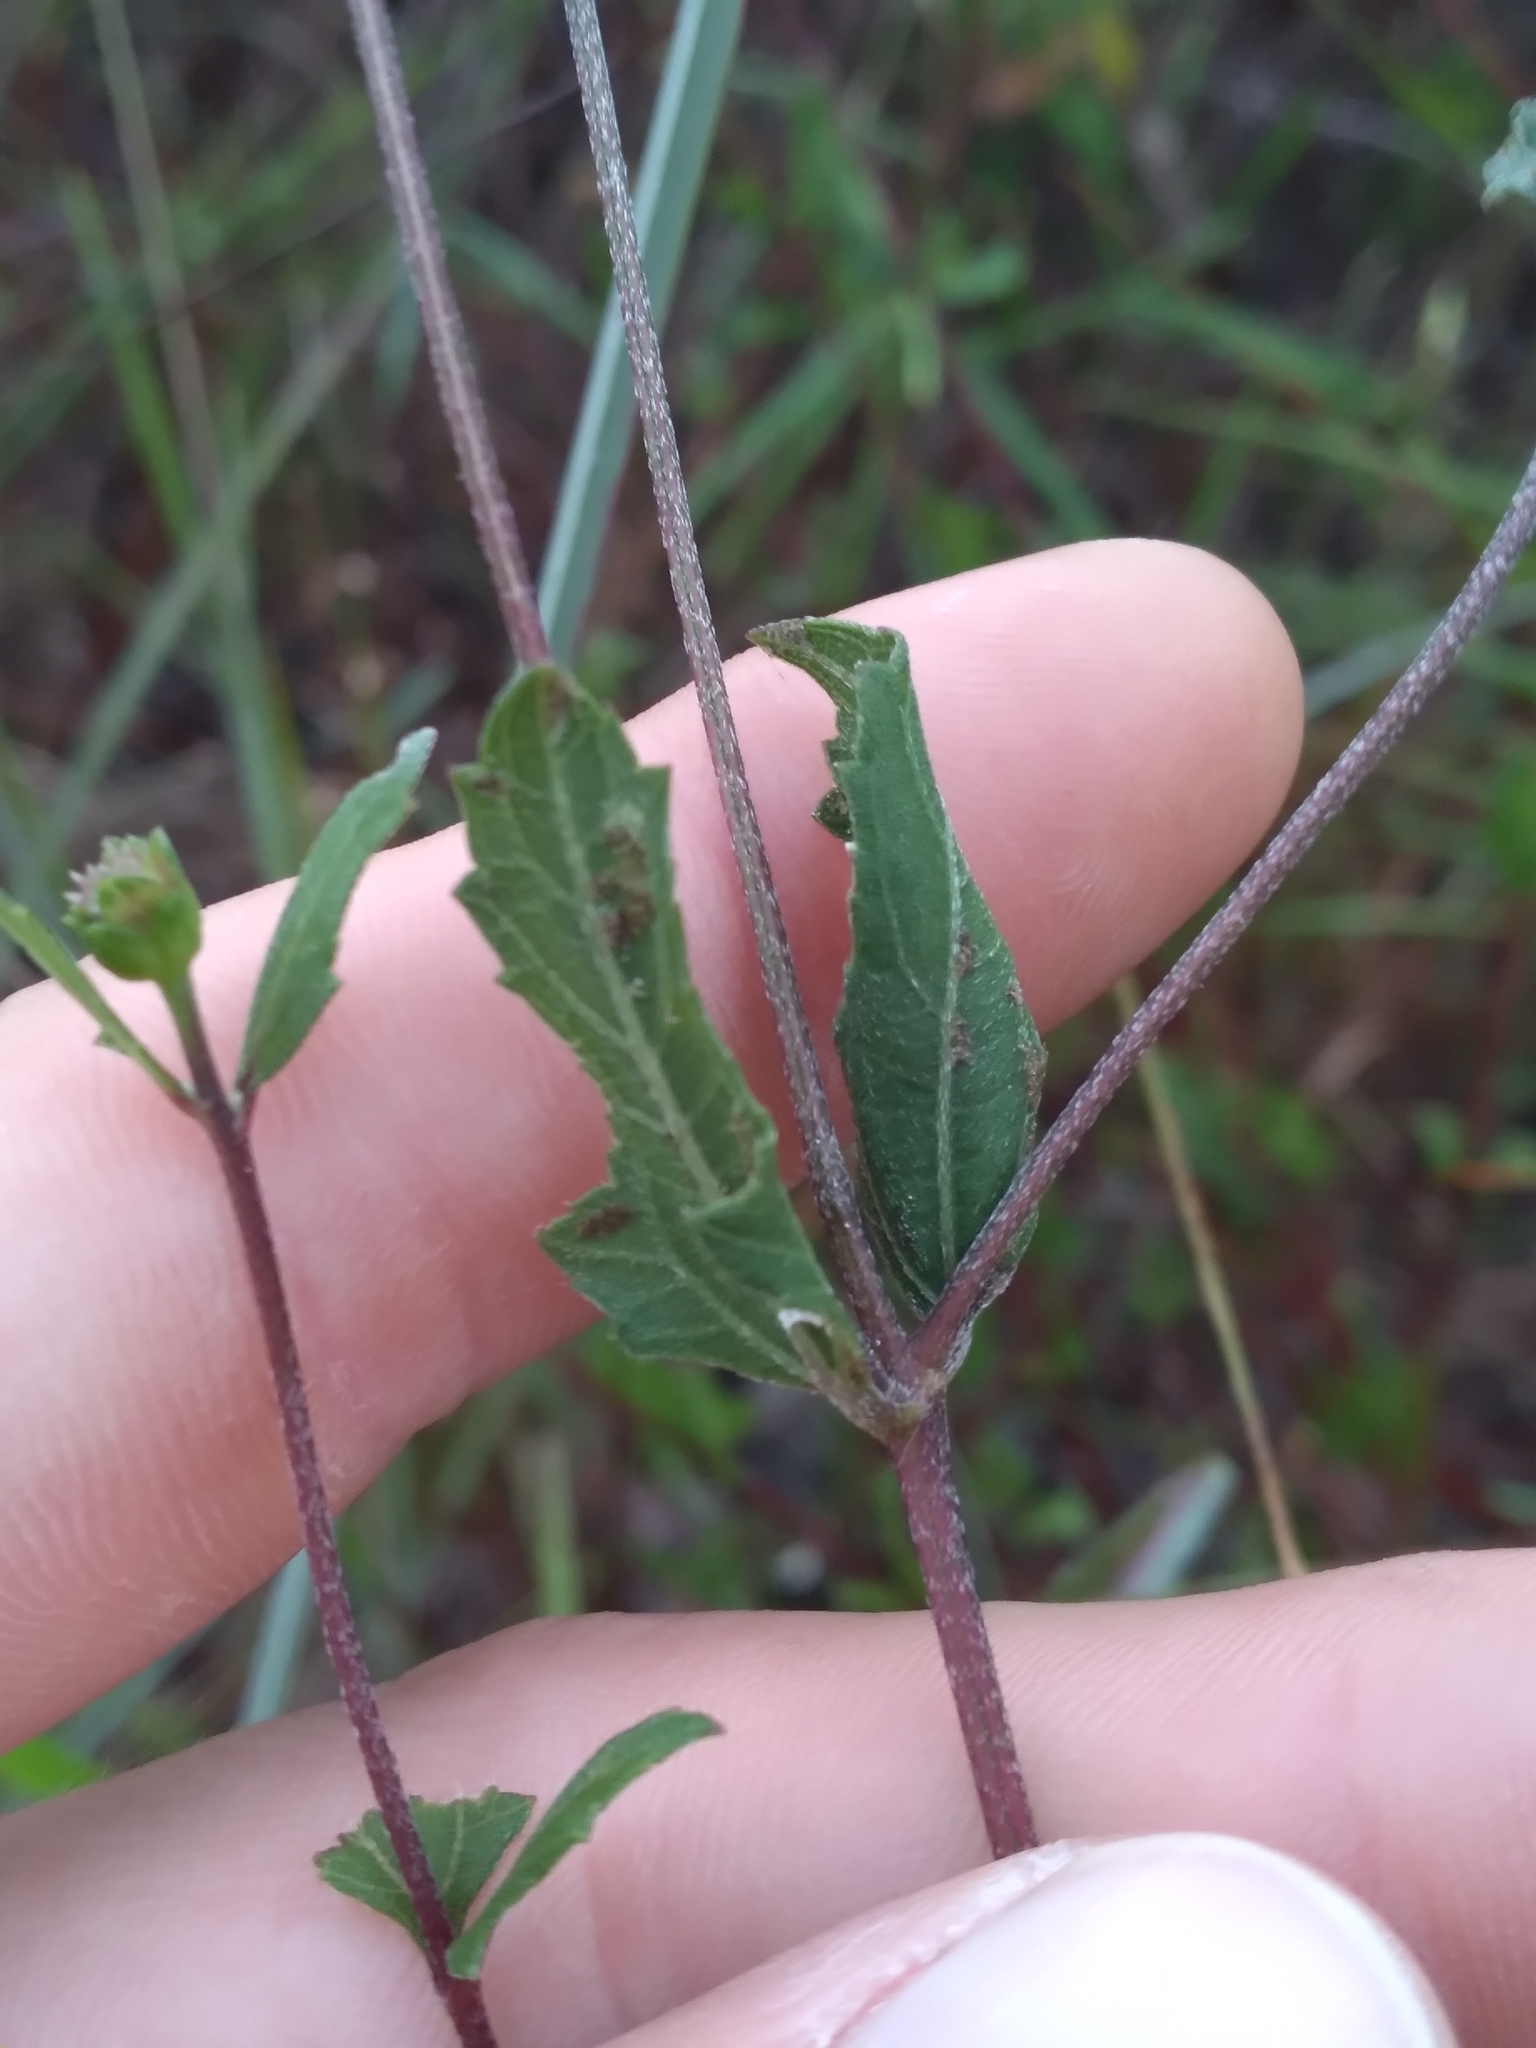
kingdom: Plantae
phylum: Tracheophyta
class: Magnoliopsida
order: Asterales
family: Asteraceae
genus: Melanthera
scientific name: Melanthera parvifolia
